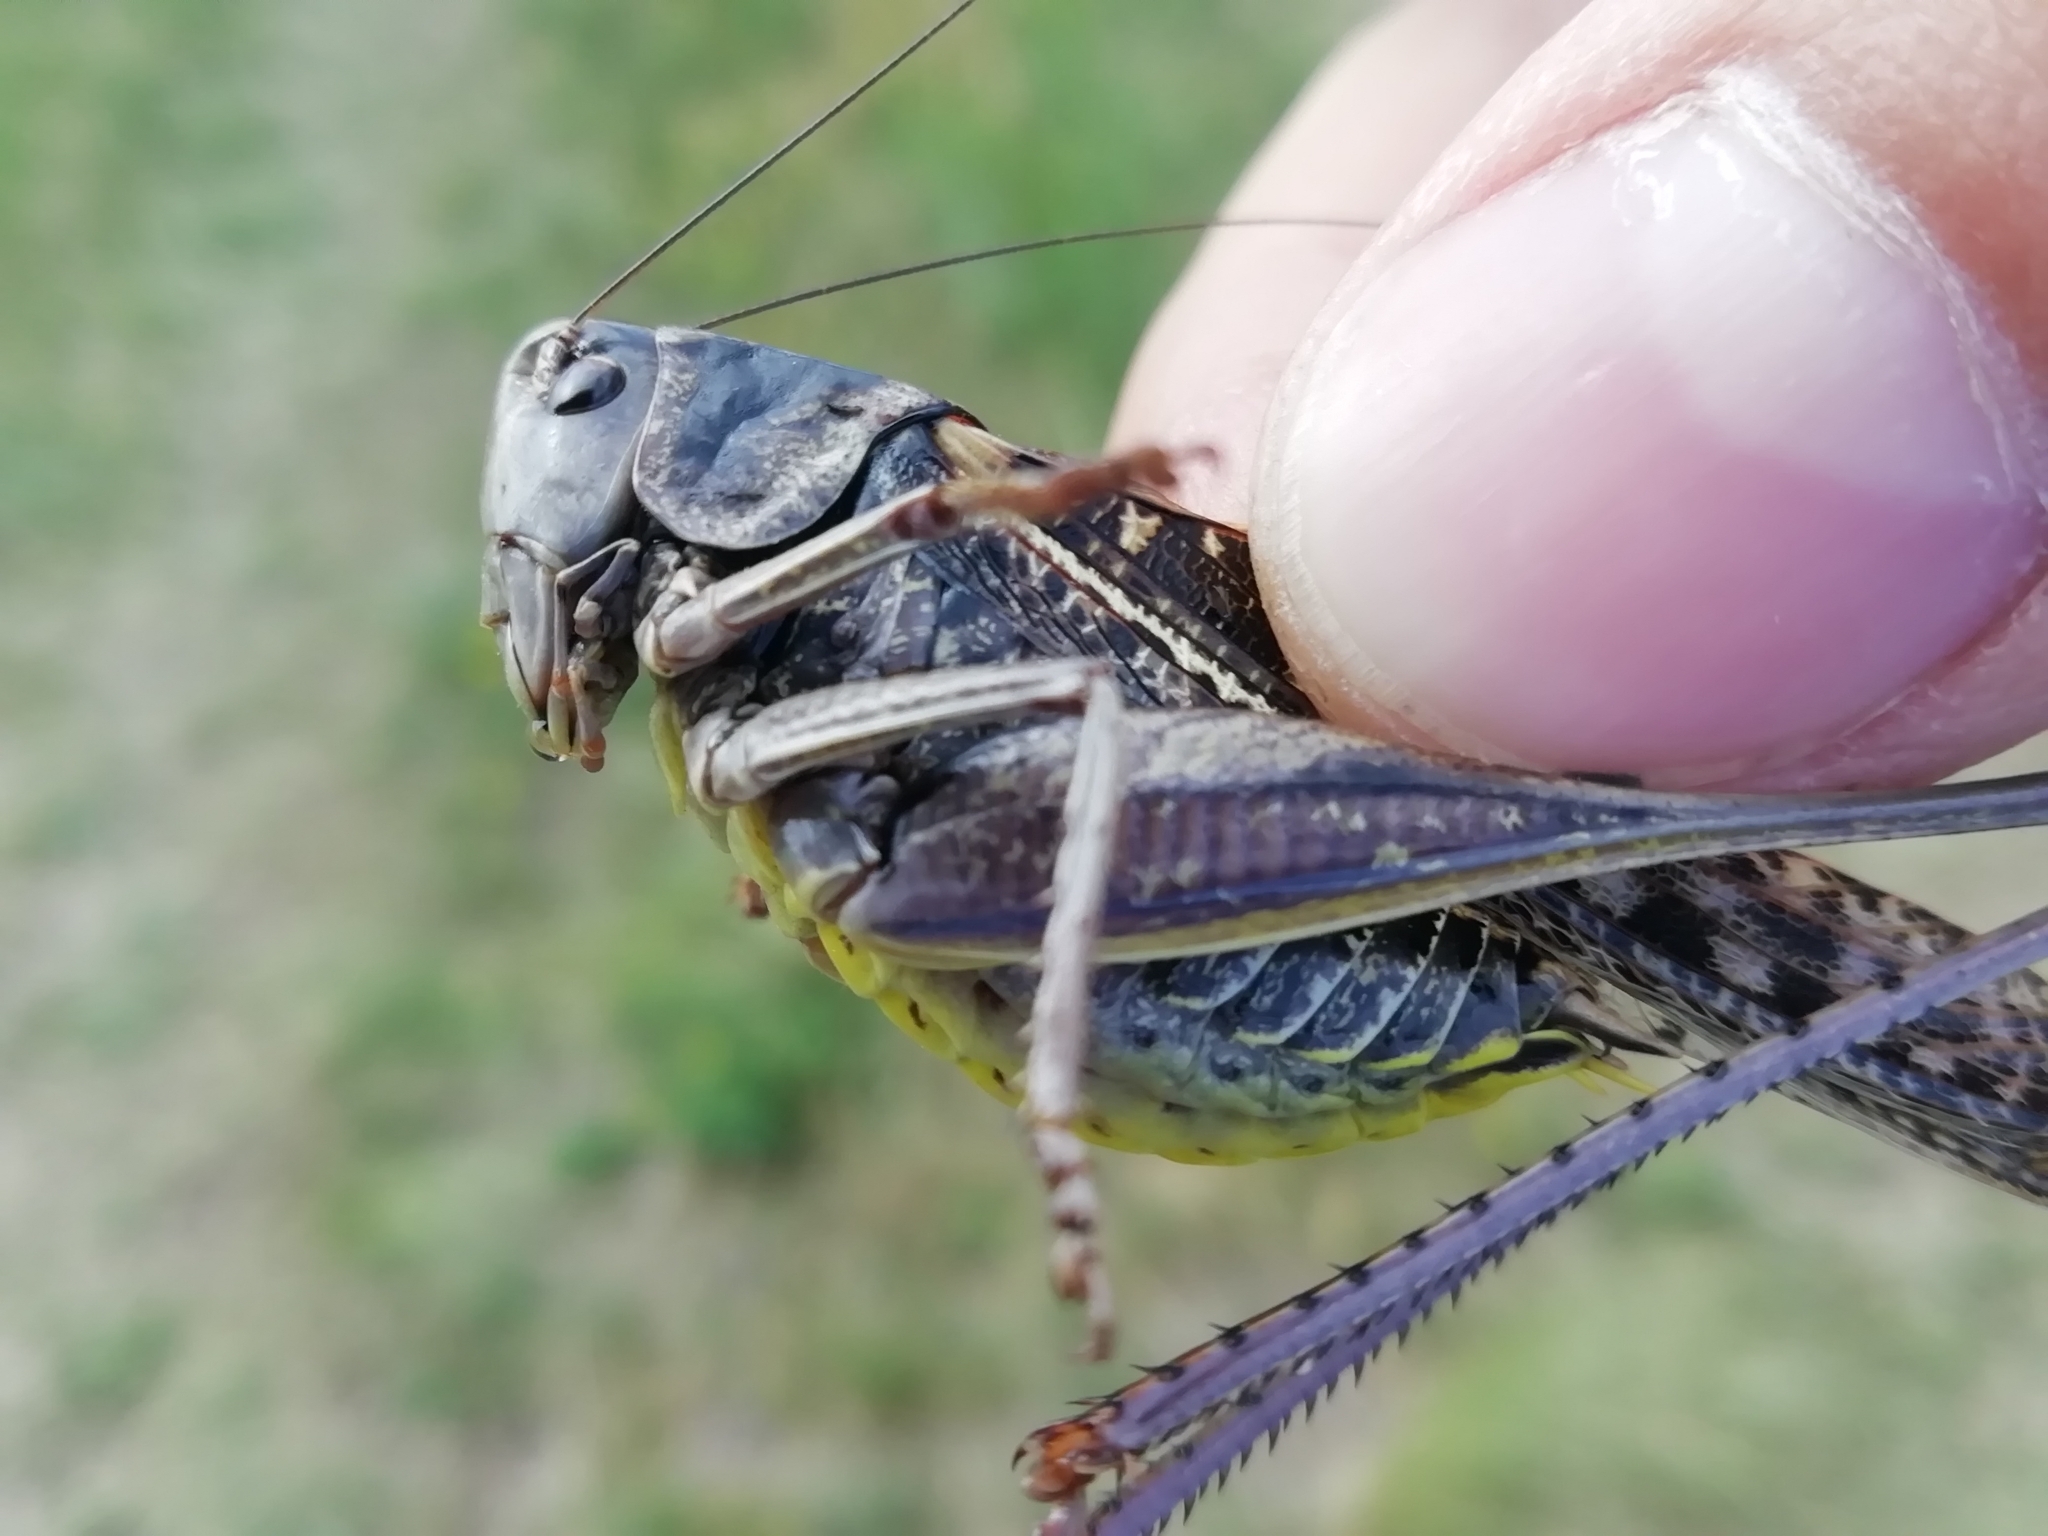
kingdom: Animalia
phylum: Arthropoda
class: Insecta
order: Orthoptera
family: Tettigoniidae
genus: Decticus
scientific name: Decticus verrucivorus
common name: Wart-biter
